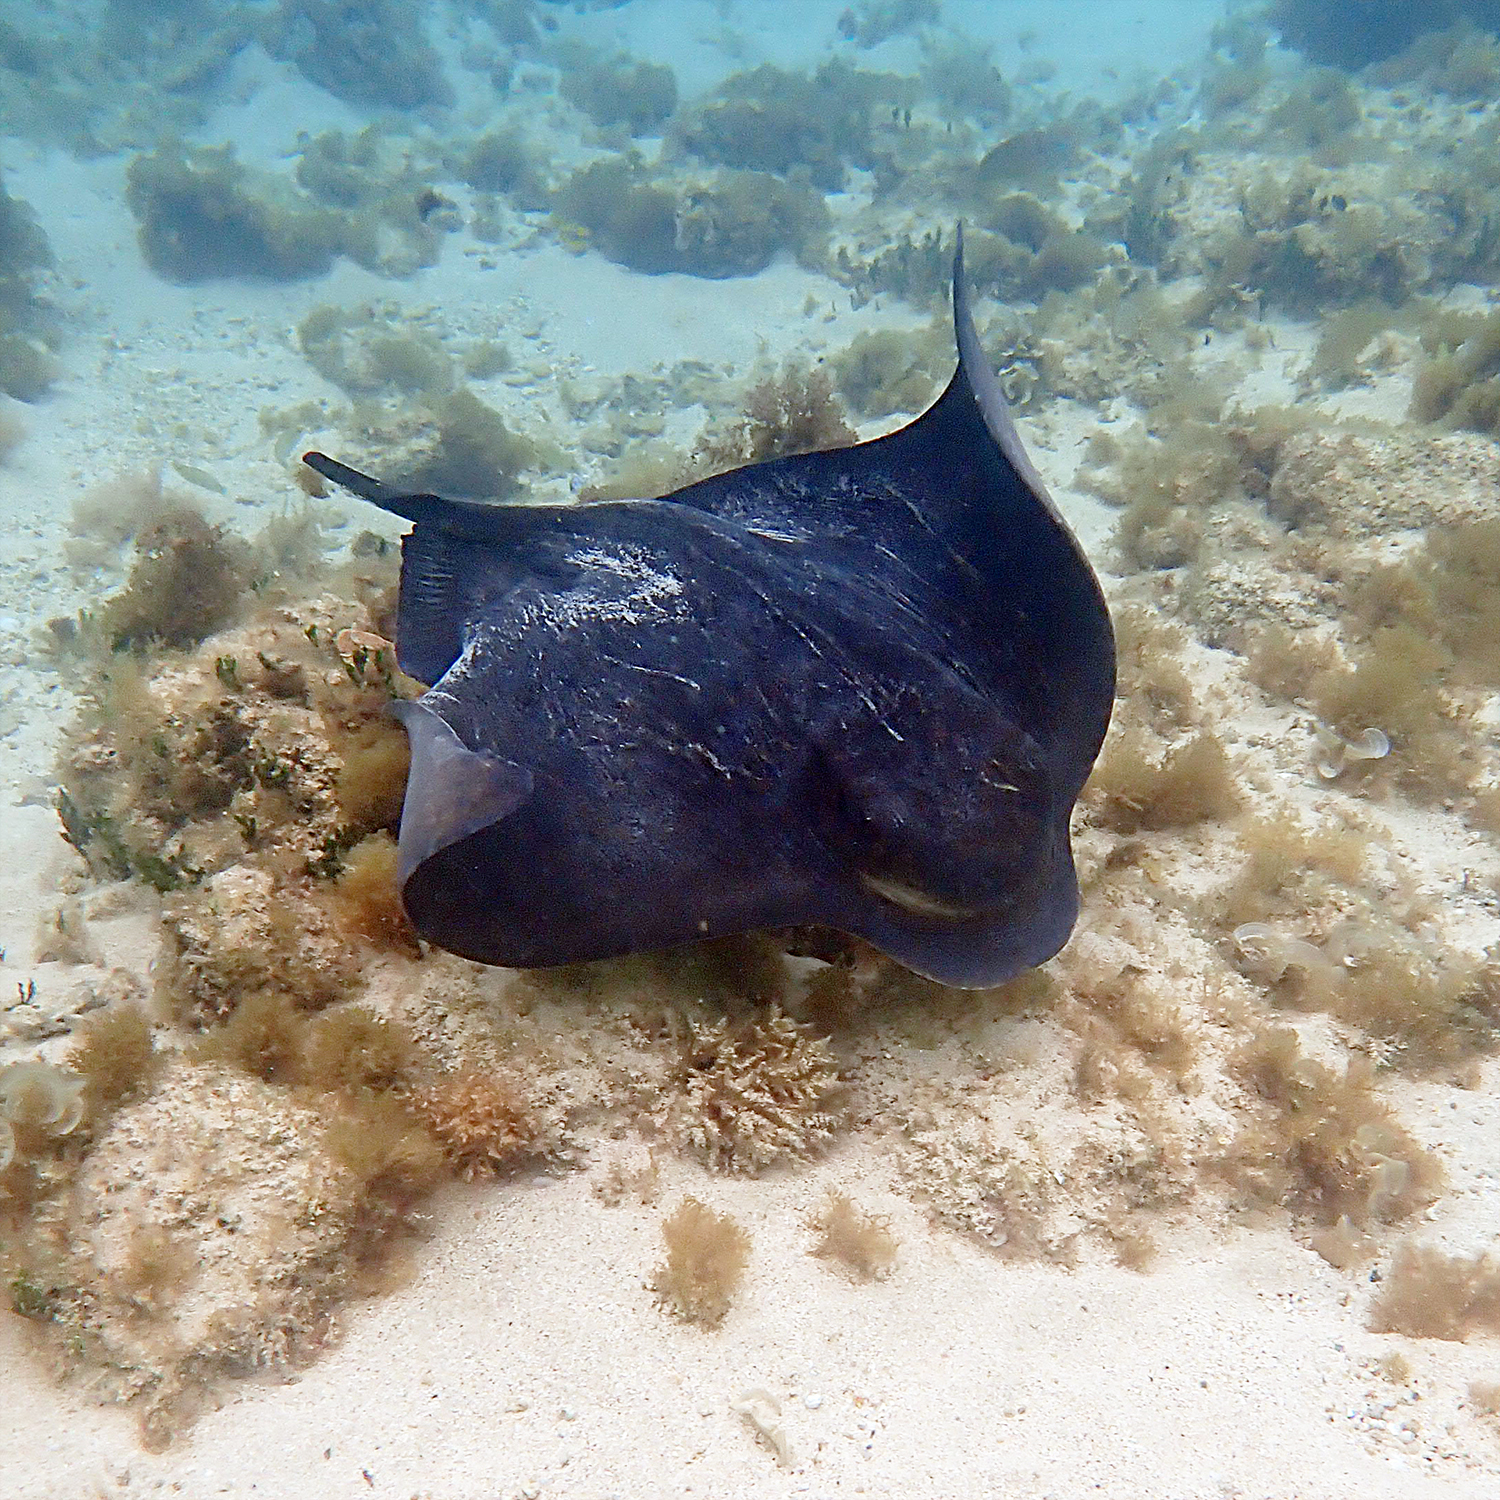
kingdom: Animalia
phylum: Chordata
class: Elasmobranchii
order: Myliobatiformes
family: Myliobatidae
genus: Myliobatis
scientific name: Myliobatis tenuicaudatus
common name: Eagle ray
